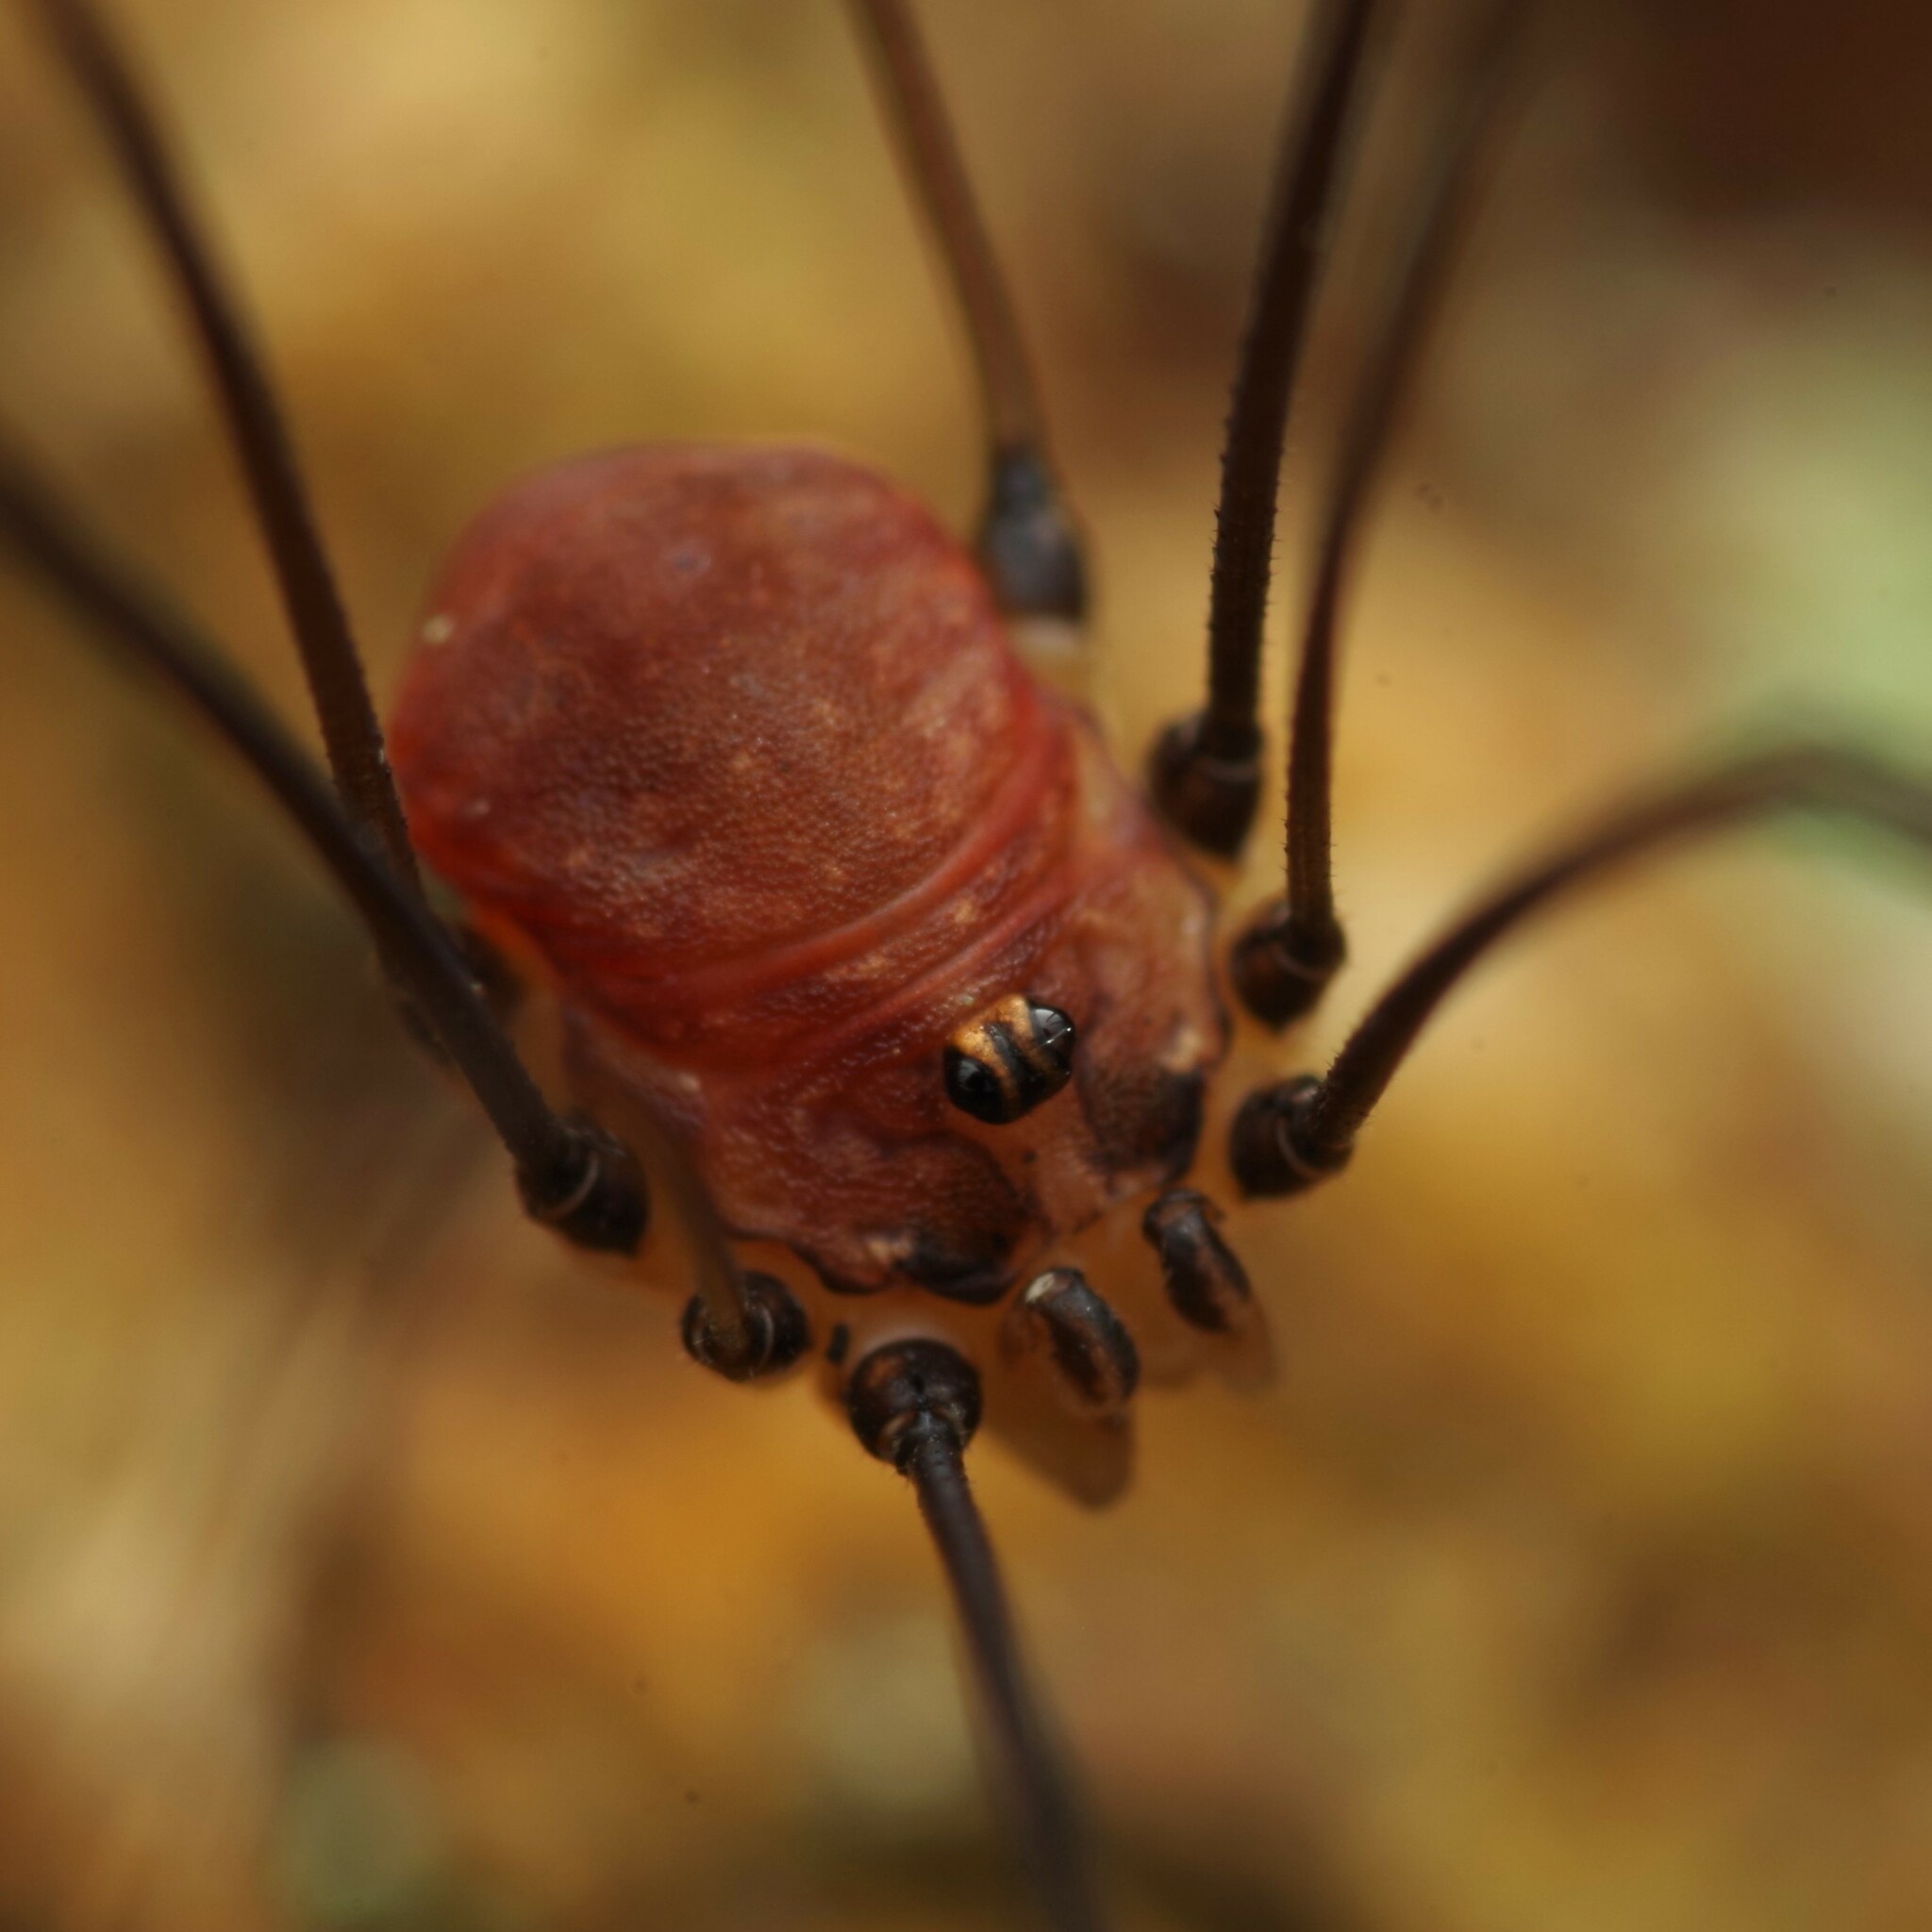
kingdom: Animalia
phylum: Arthropoda
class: Arachnida
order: Opiliones
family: Sclerosomatidae
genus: Leiobunum
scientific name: Leiobunum blackwalli
